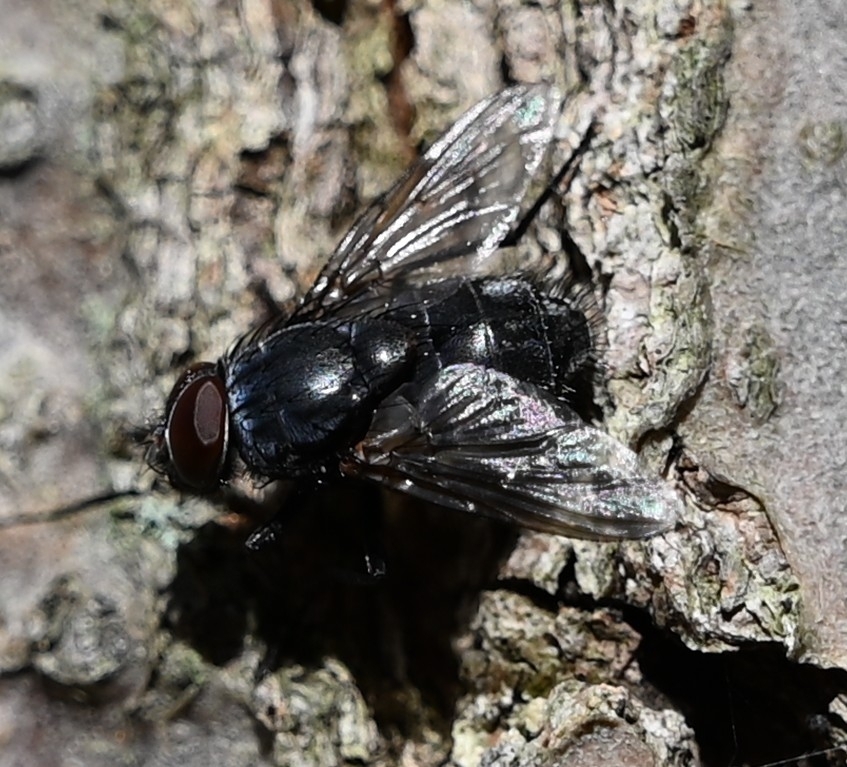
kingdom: Animalia
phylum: Arthropoda
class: Insecta
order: Diptera
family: Calliphoridae
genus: Calliphora
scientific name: Calliphora vicina
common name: Common blow flie
